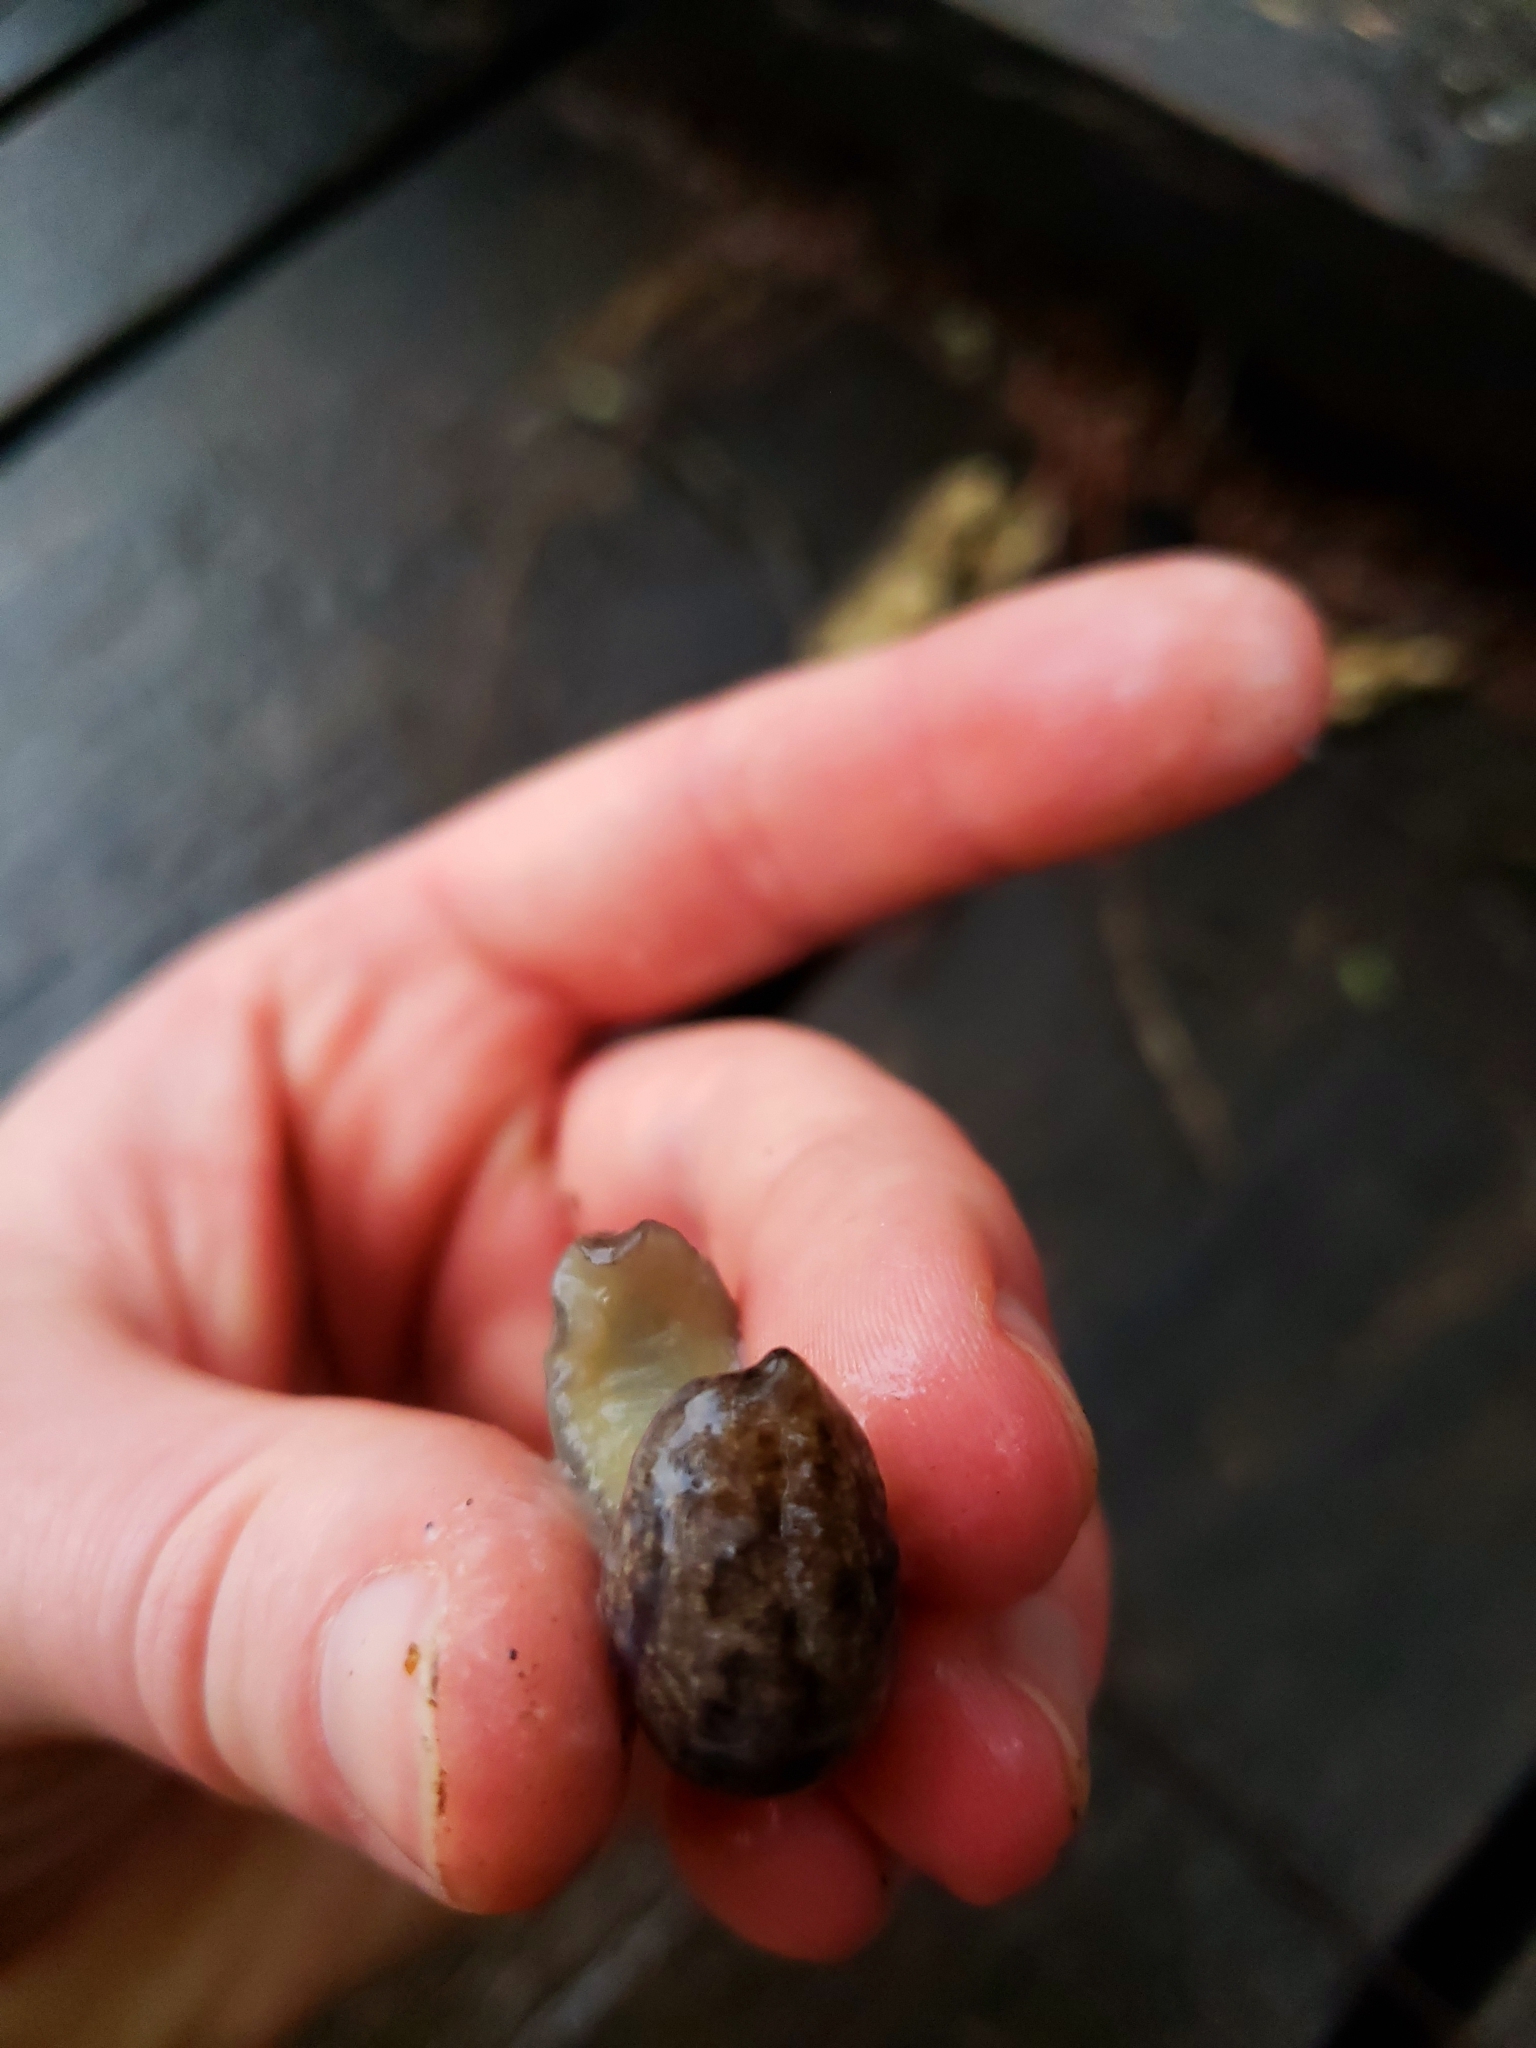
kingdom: Animalia
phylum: Mollusca
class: Gastropoda
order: Stylommatophora
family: Philomycidae
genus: Megapallifera
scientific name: Megapallifera mutabilis
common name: Changeable mantleslug
